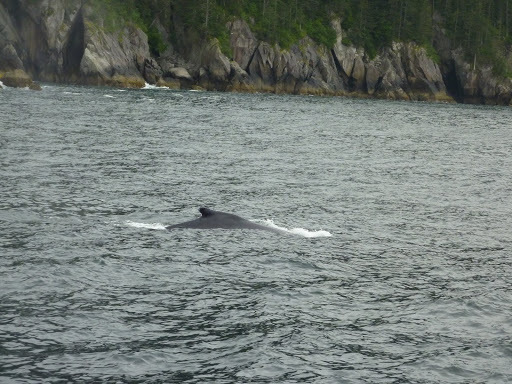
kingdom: Animalia
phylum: Chordata
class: Mammalia
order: Cetacea
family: Balaenopteridae
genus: Megaptera
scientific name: Megaptera novaeangliae
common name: Humpback whale
